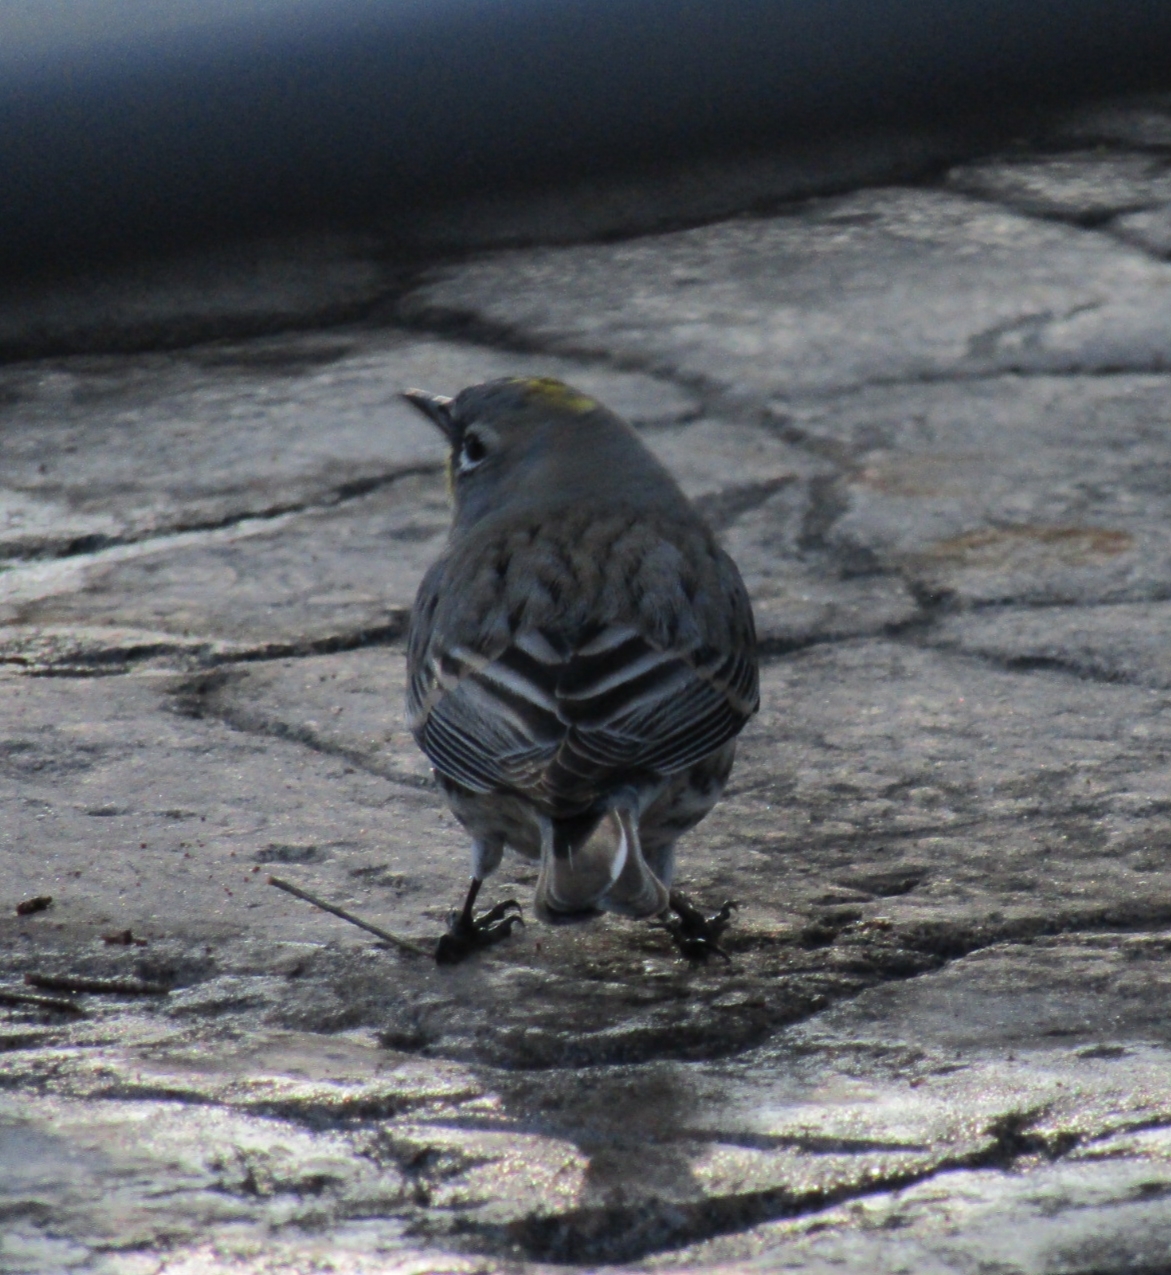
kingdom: Animalia
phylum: Chordata
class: Aves
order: Passeriformes
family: Parulidae
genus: Setophaga
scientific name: Setophaga coronata
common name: Myrtle warbler
